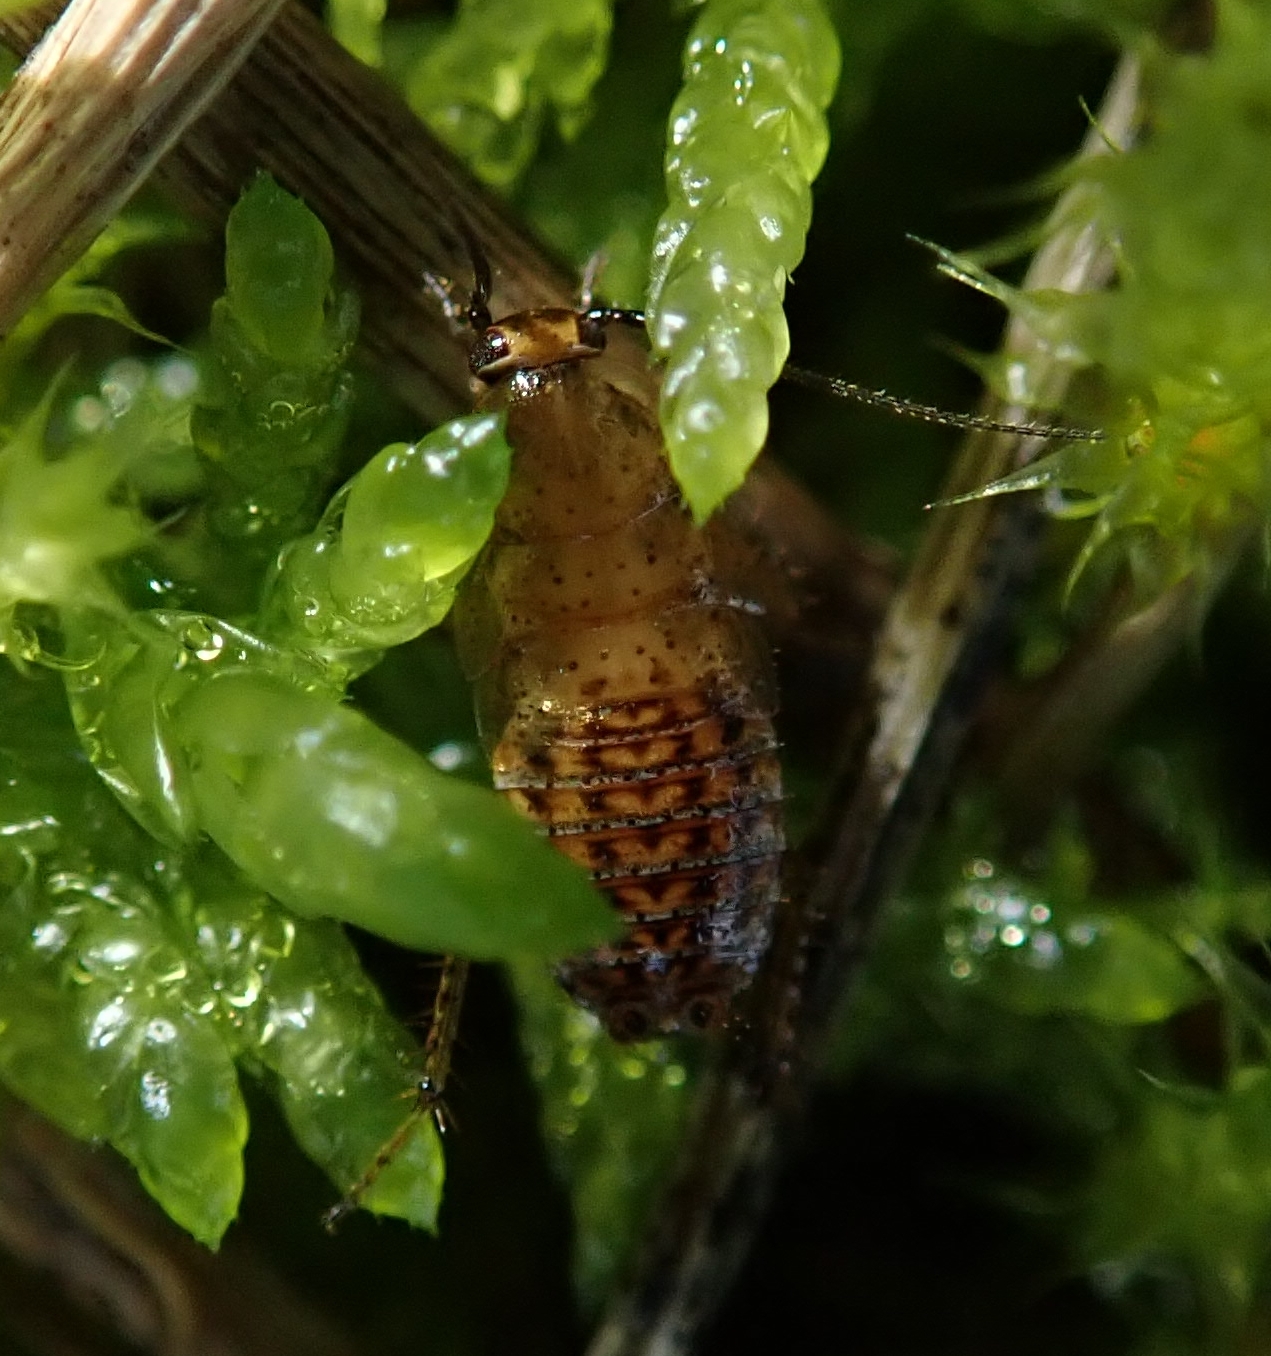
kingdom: Animalia
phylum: Arthropoda
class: Insecta
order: Blattodea
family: Ectobiidae
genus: Ectobius
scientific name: Ectobius pallidus
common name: Tawny cockroach
